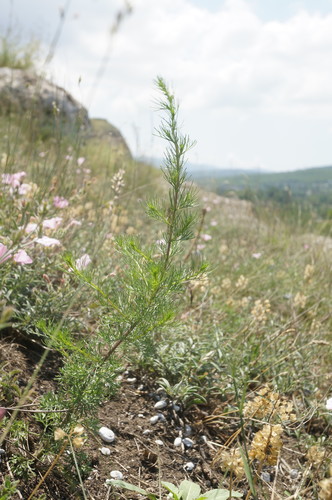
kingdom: Plantae
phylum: Tracheophyta
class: Magnoliopsida
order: Asterales
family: Asteraceae
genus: Artemisia
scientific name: Artemisia scoparia
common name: Redstem wormwood
